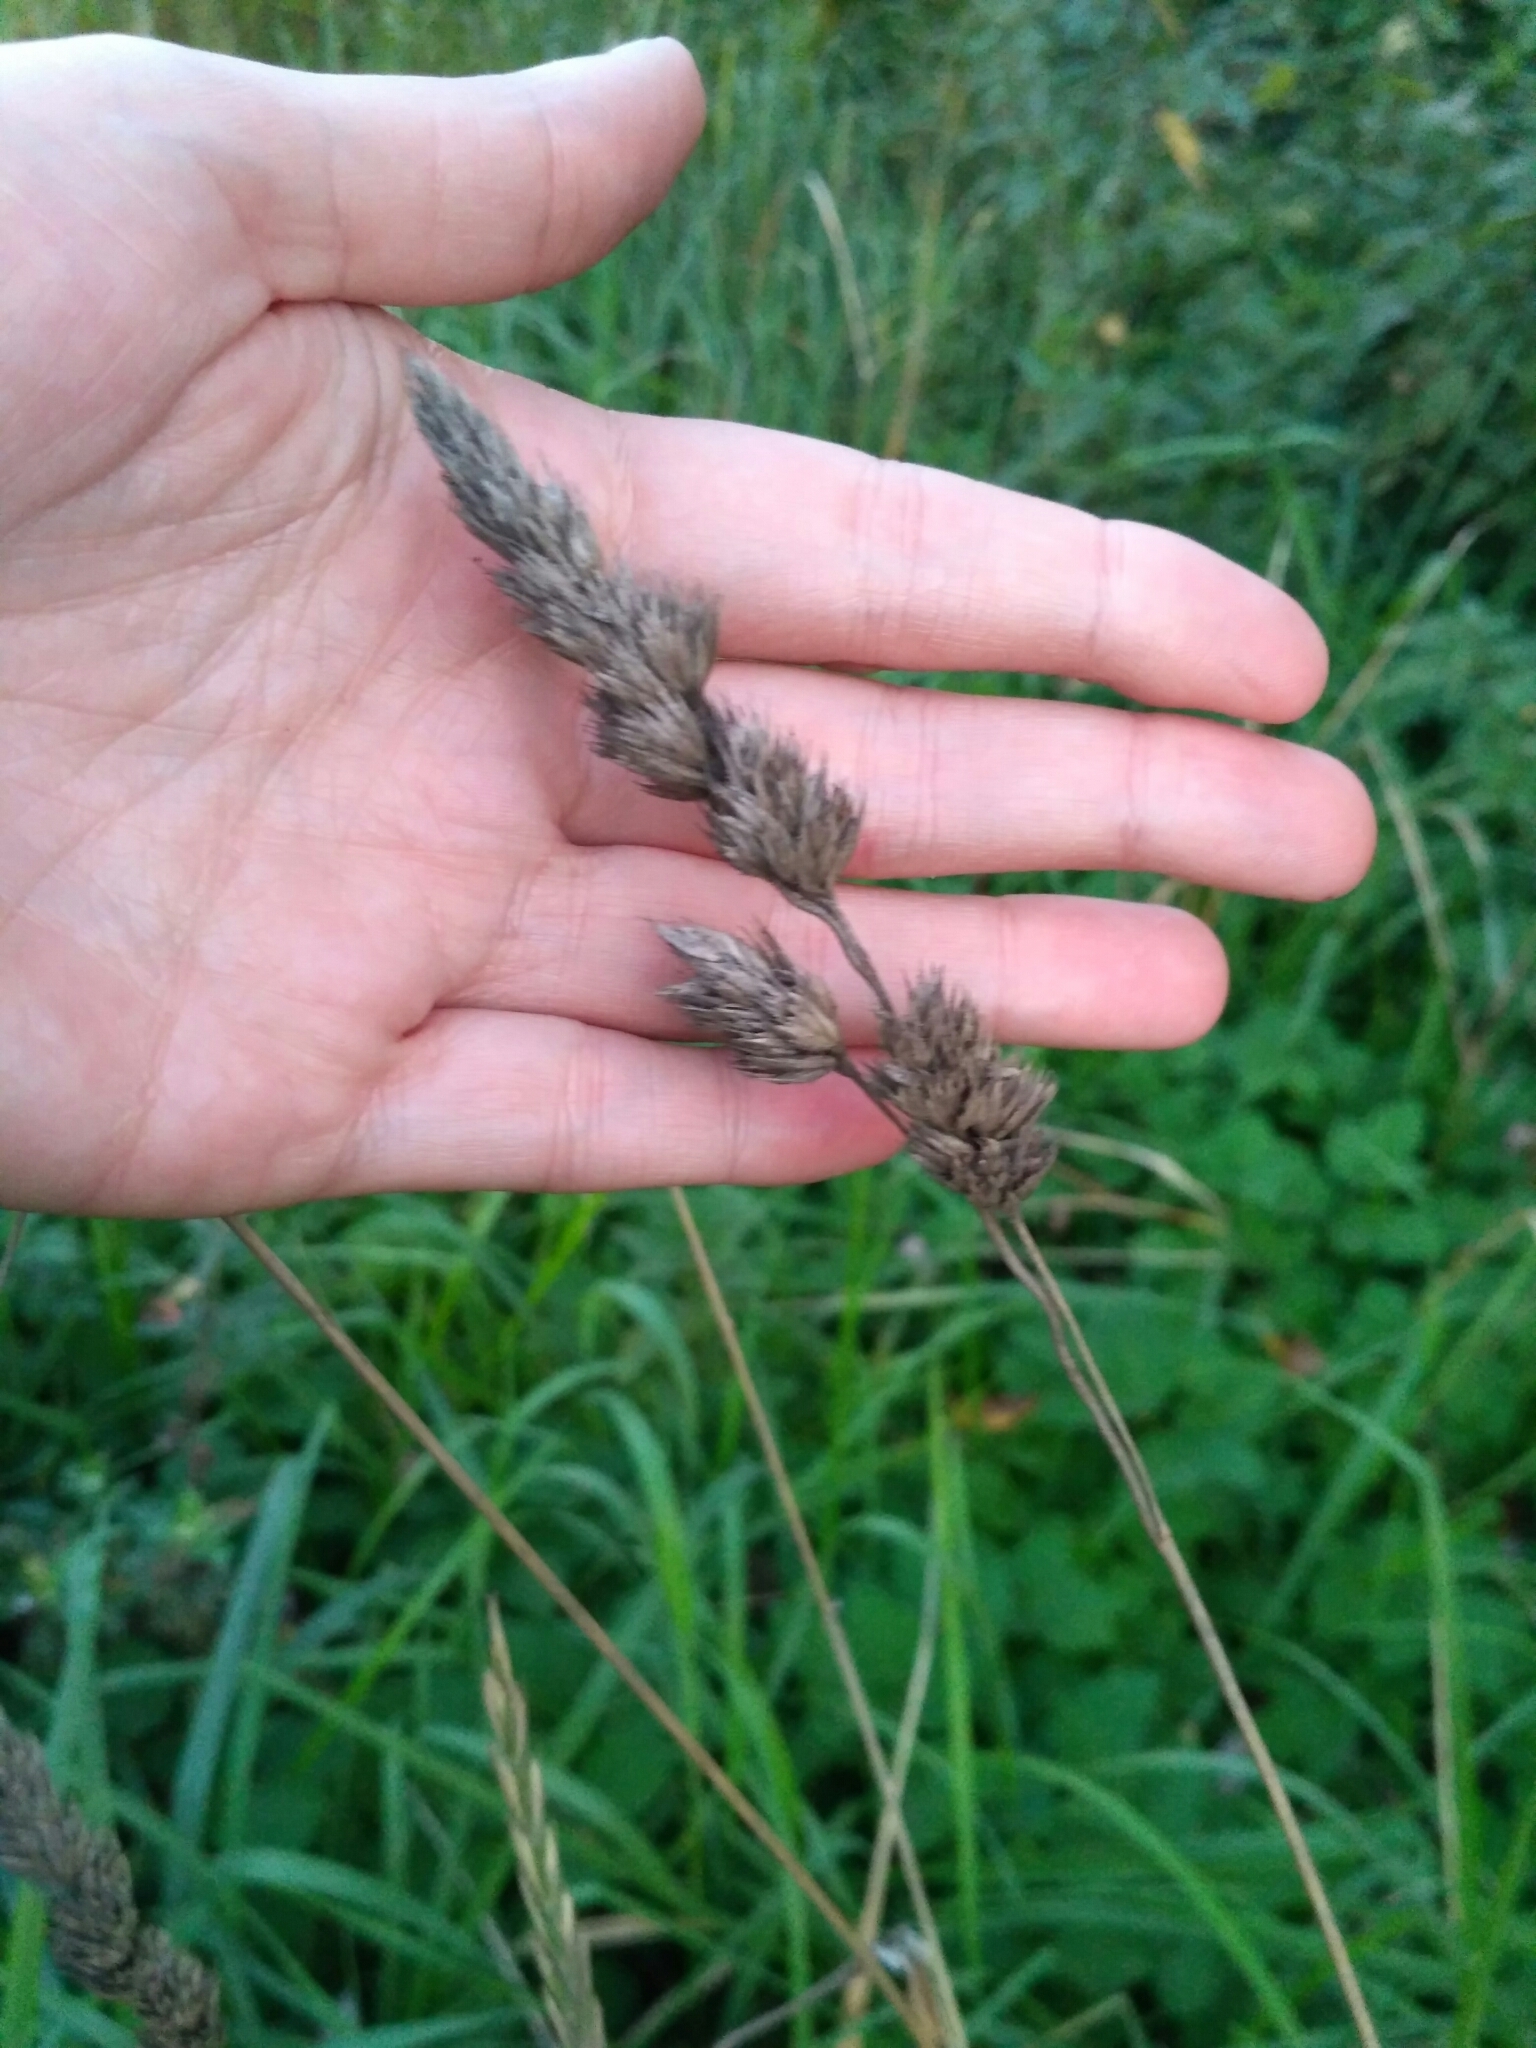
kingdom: Plantae
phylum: Tracheophyta
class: Liliopsida
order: Poales
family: Poaceae
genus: Dactylis
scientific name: Dactylis glomerata
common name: Orchardgrass
